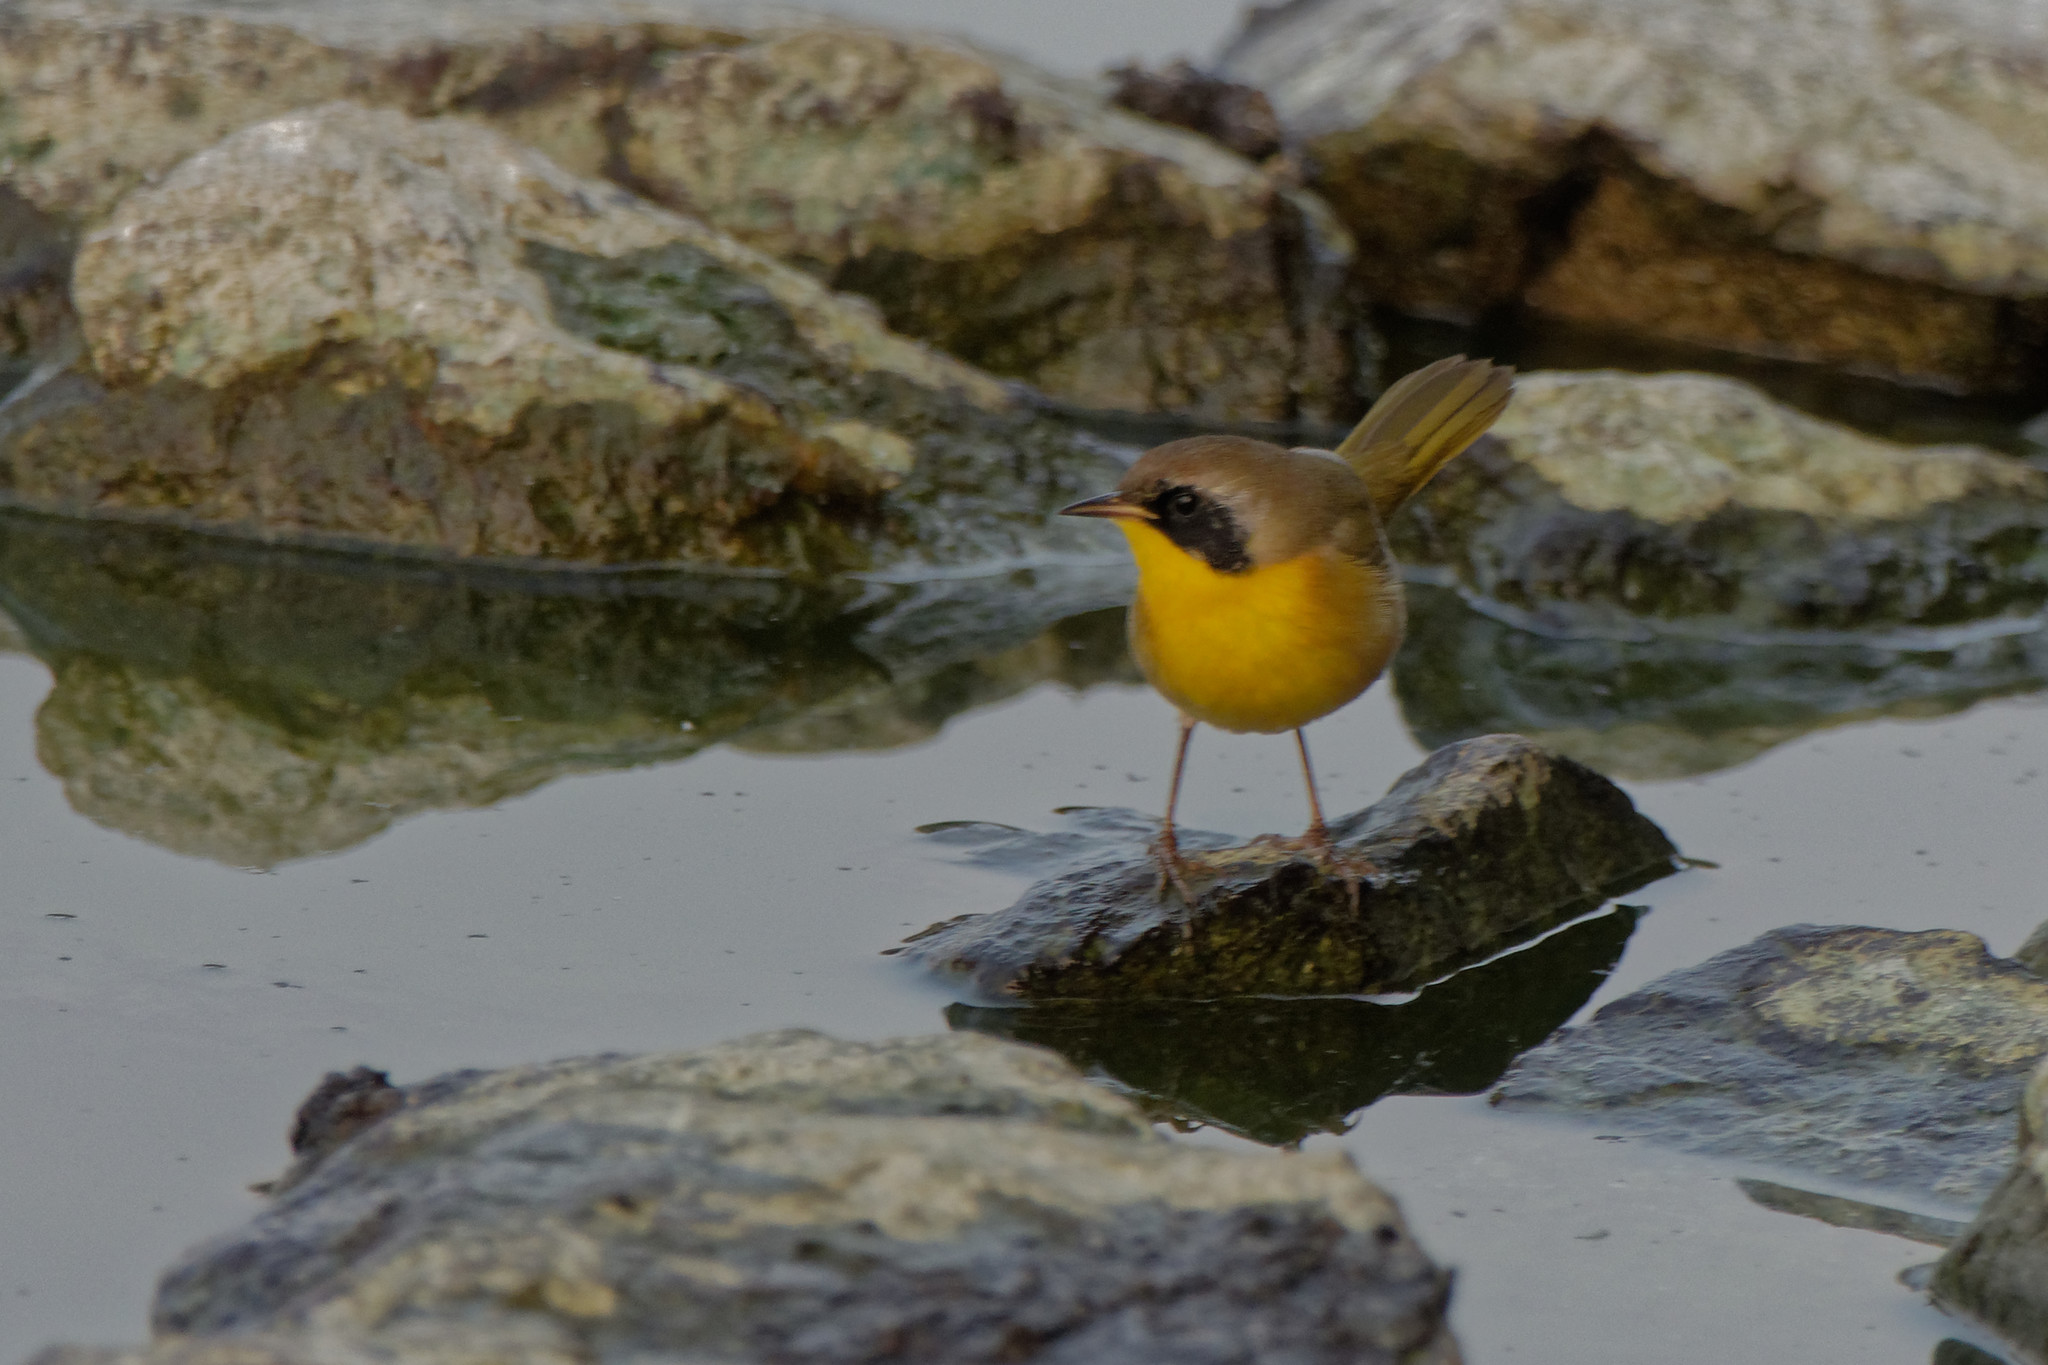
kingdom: Animalia
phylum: Chordata
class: Aves
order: Passeriformes
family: Parulidae
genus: Geothlypis
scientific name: Geothlypis trichas
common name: Common yellowthroat
